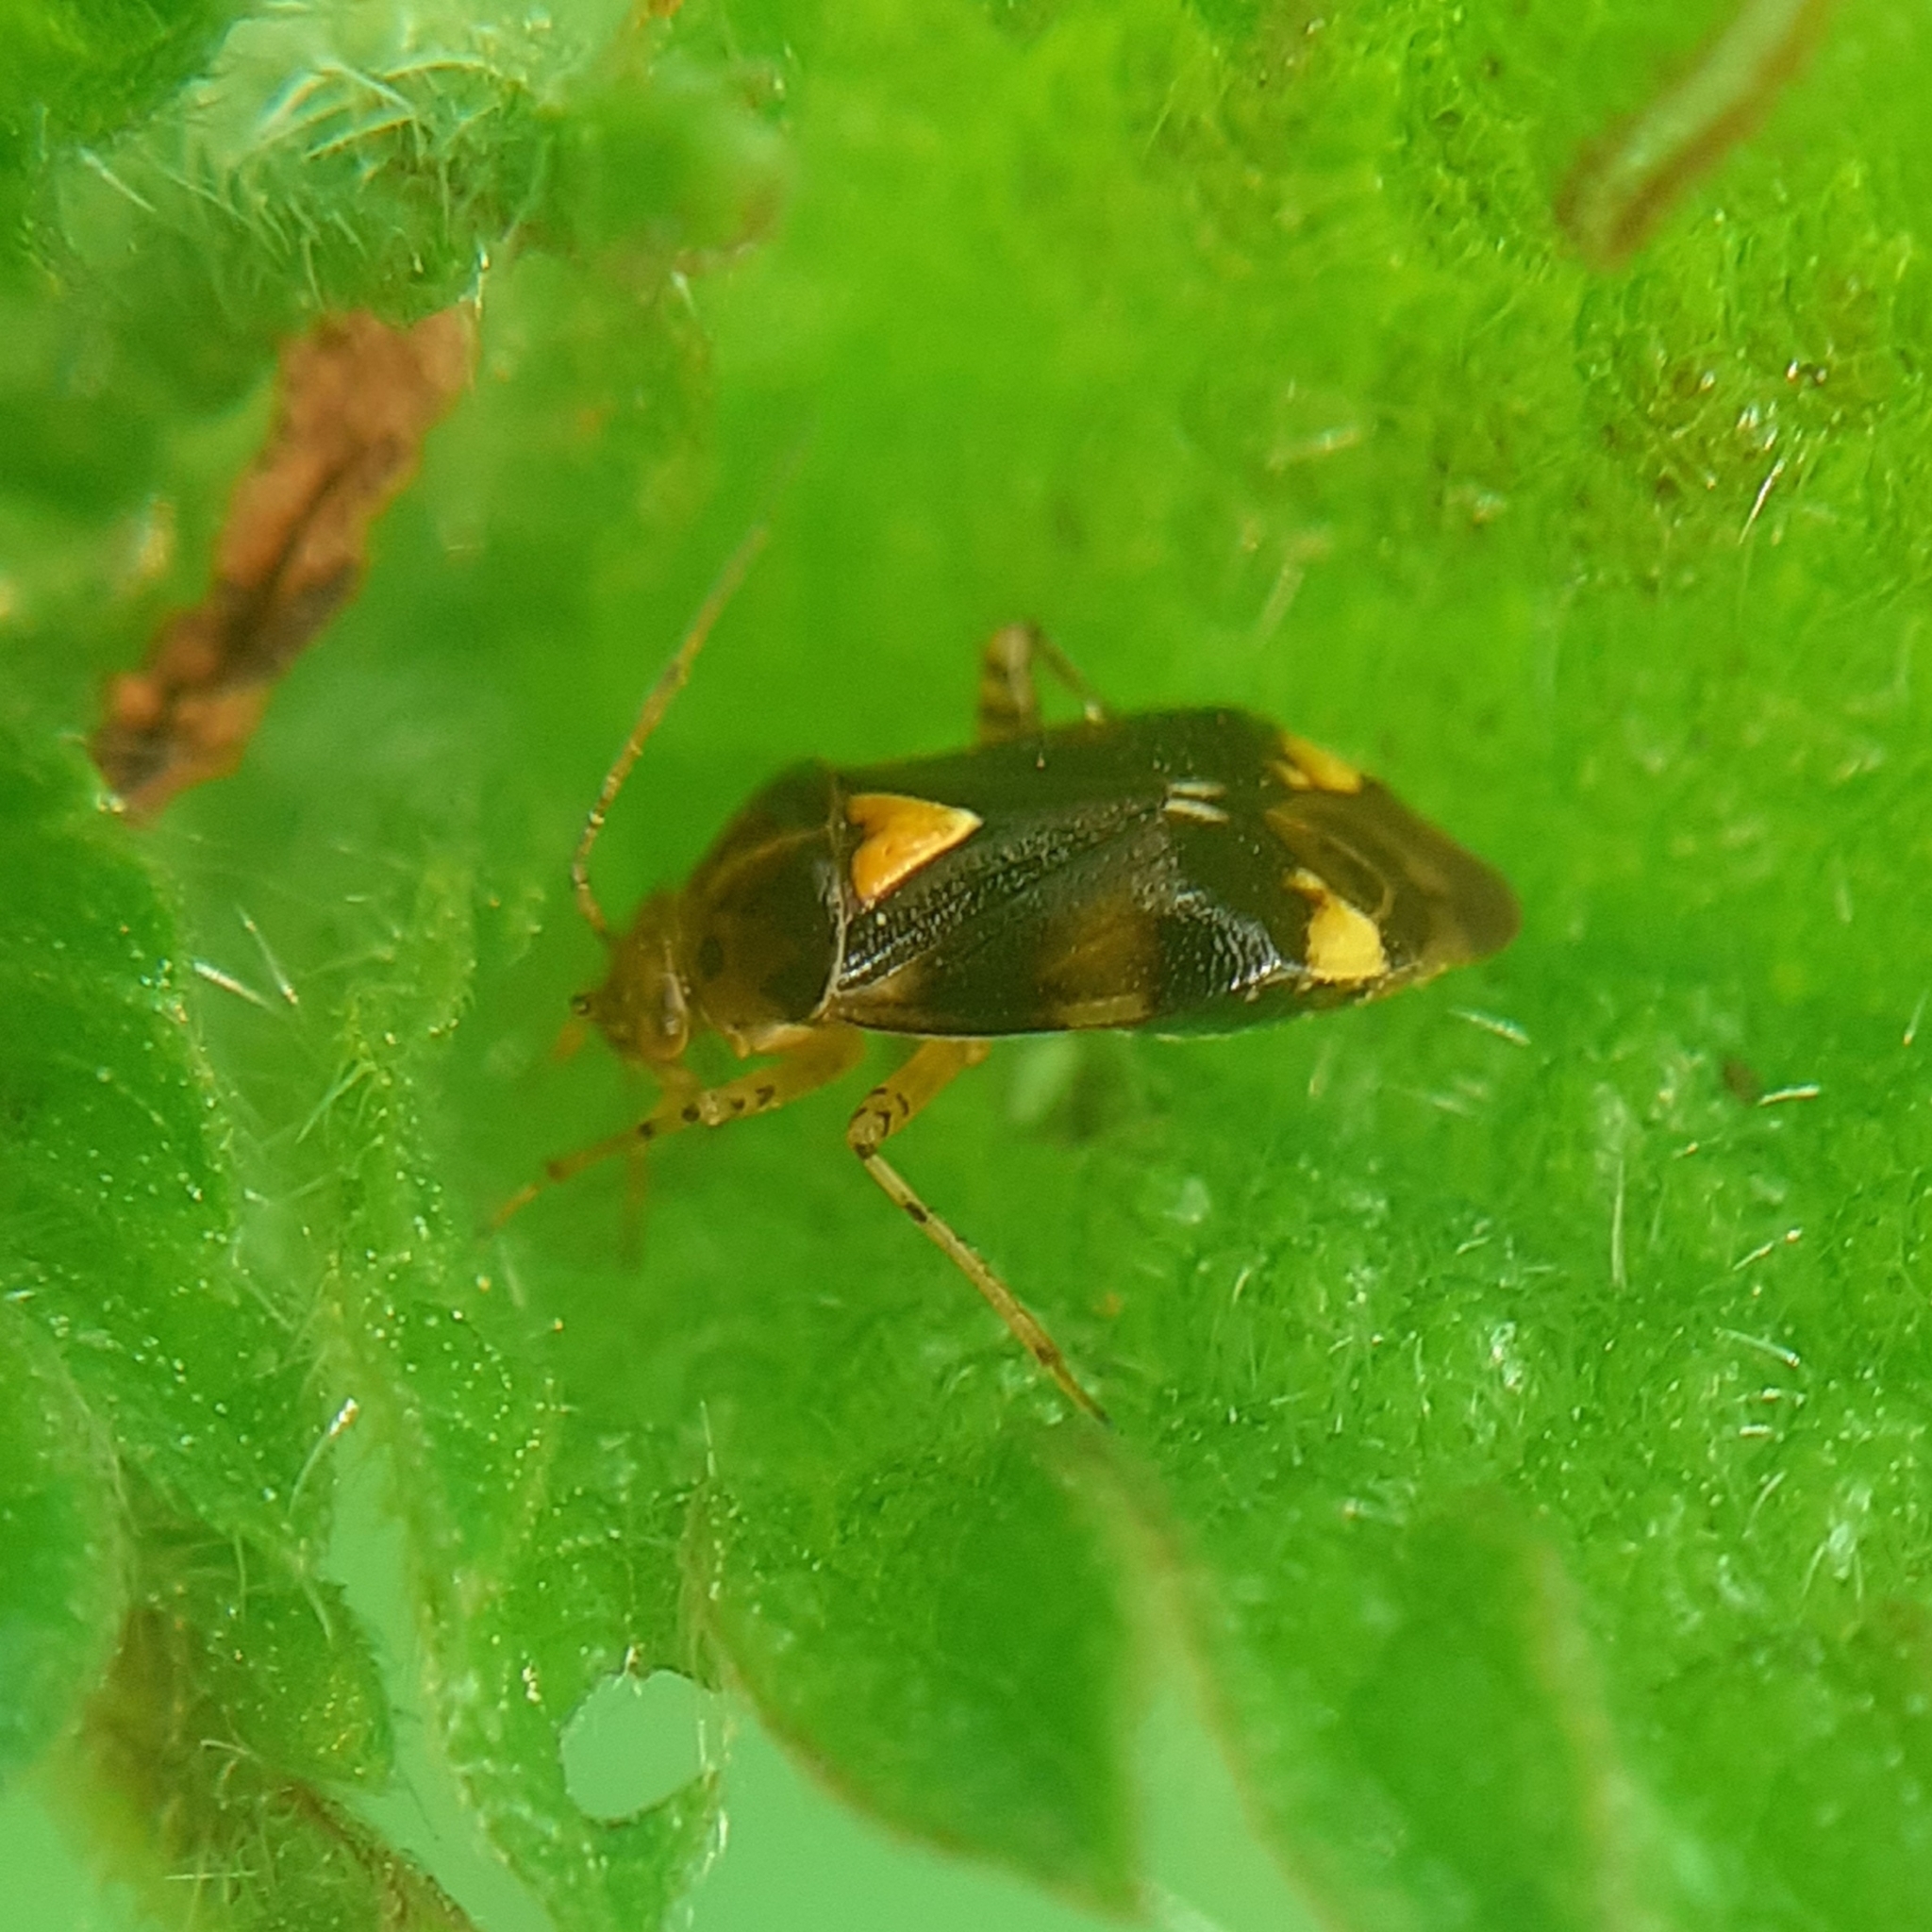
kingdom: Animalia
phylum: Arthropoda
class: Insecta
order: Hemiptera
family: Miridae
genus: Liocoris
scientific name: Liocoris tripustulatus
